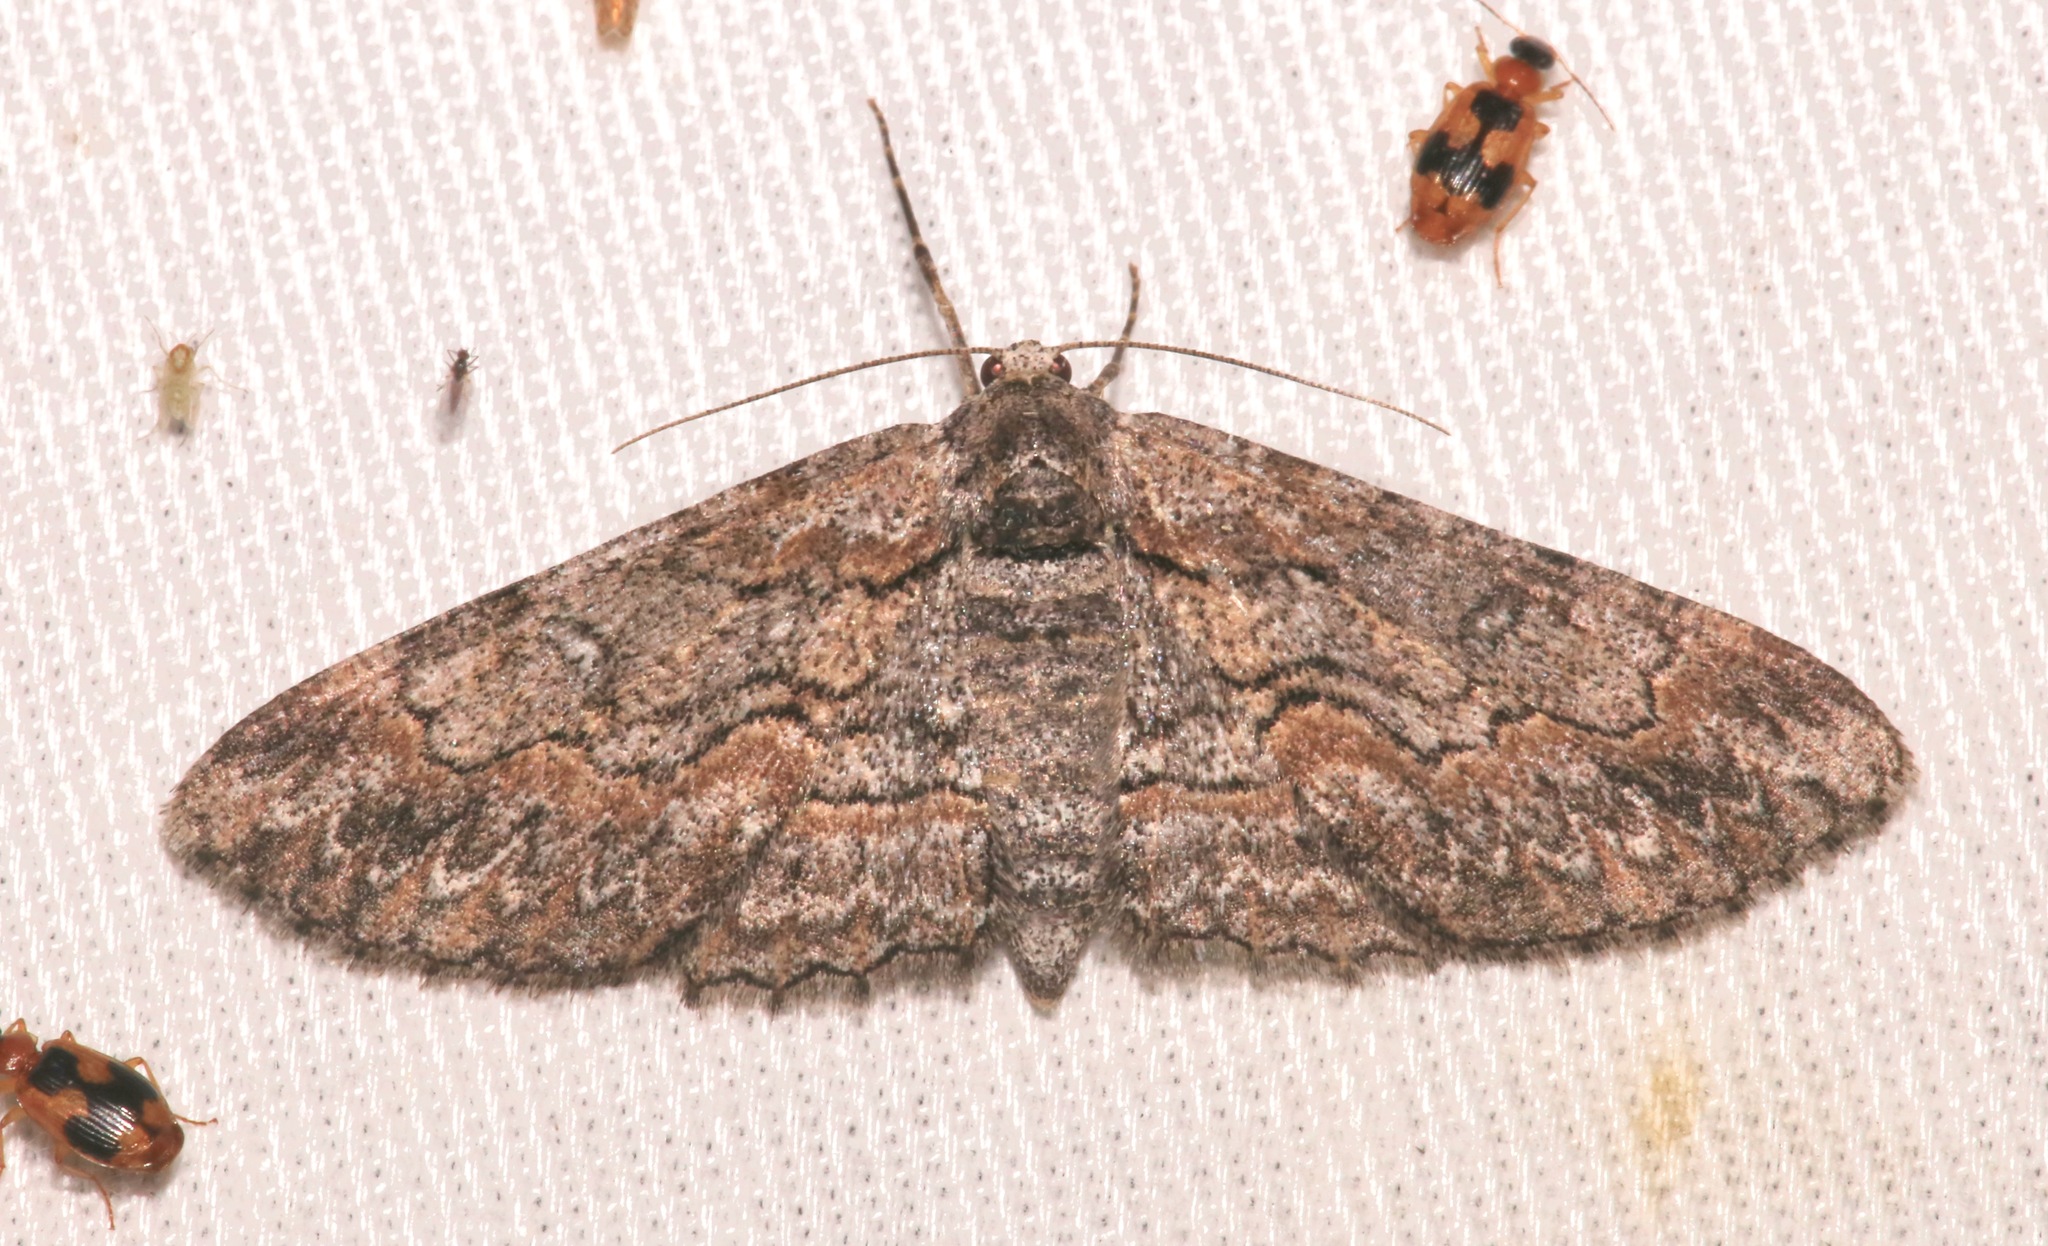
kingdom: Animalia
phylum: Arthropoda
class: Insecta
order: Lepidoptera
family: Geometridae
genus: Iridopsis
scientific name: Iridopsis dataria
